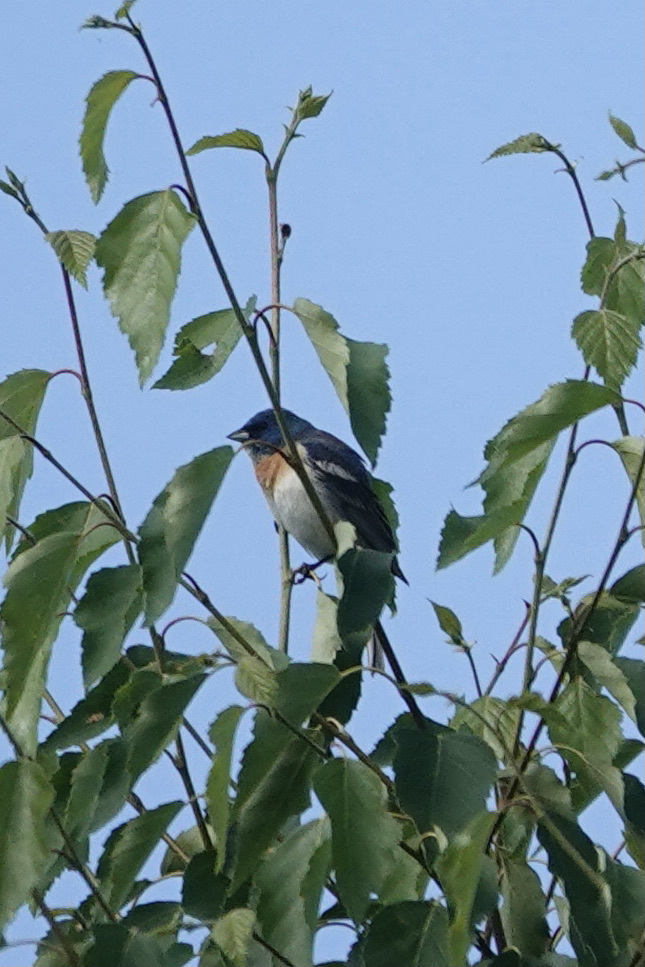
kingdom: Animalia
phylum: Chordata
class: Aves
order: Passeriformes
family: Cardinalidae
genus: Passerina
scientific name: Passerina amoena
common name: Lazuli bunting
